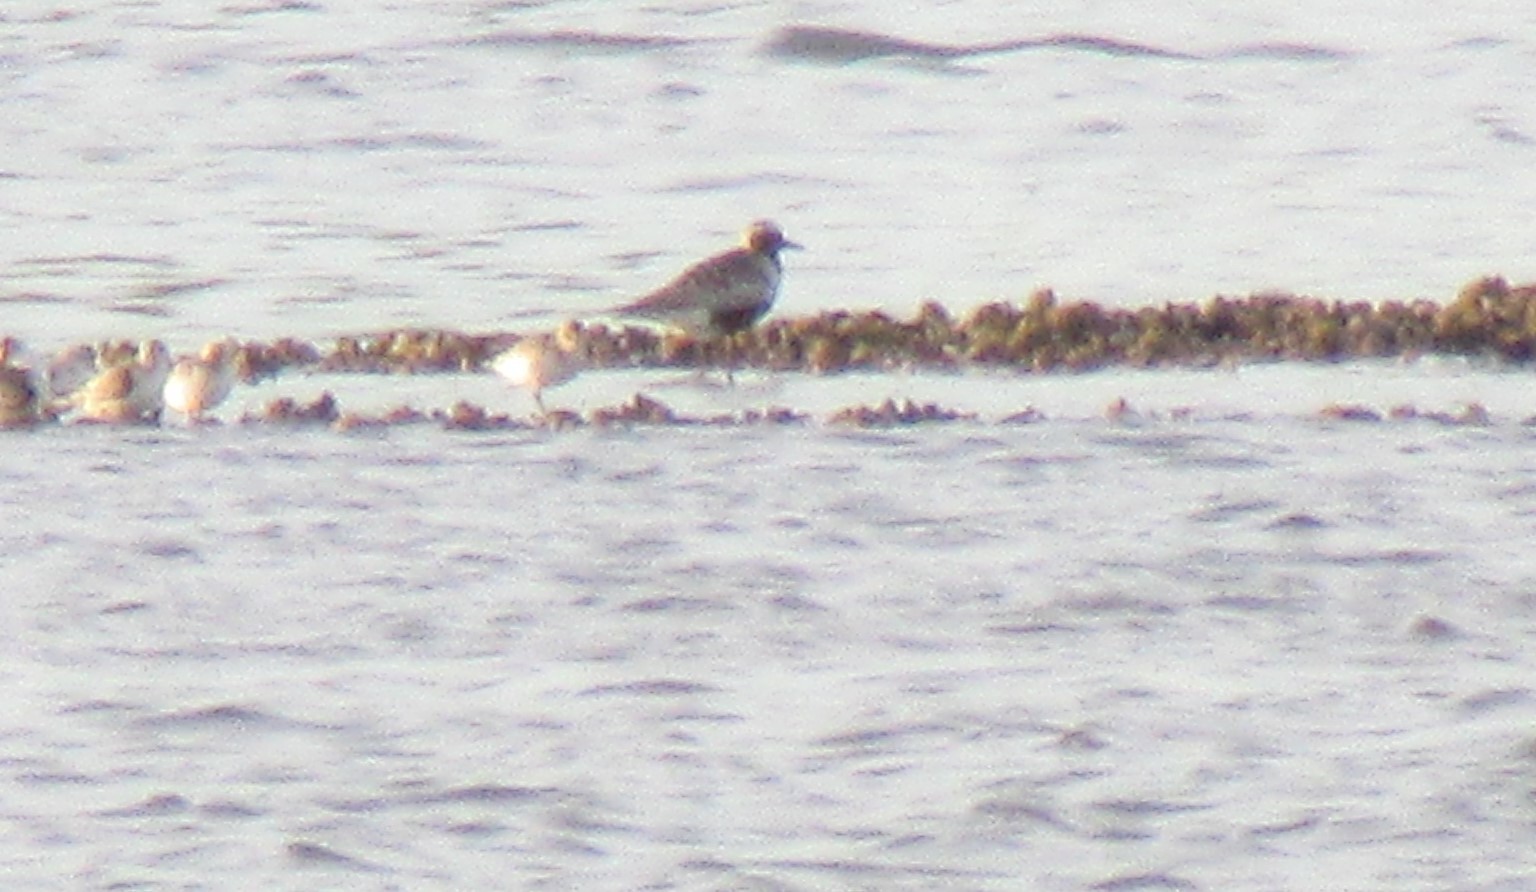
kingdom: Animalia
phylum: Chordata
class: Aves
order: Charadriiformes
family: Charadriidae
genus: Pluvialis
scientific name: Pluvialis squatarola
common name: Grey plover
